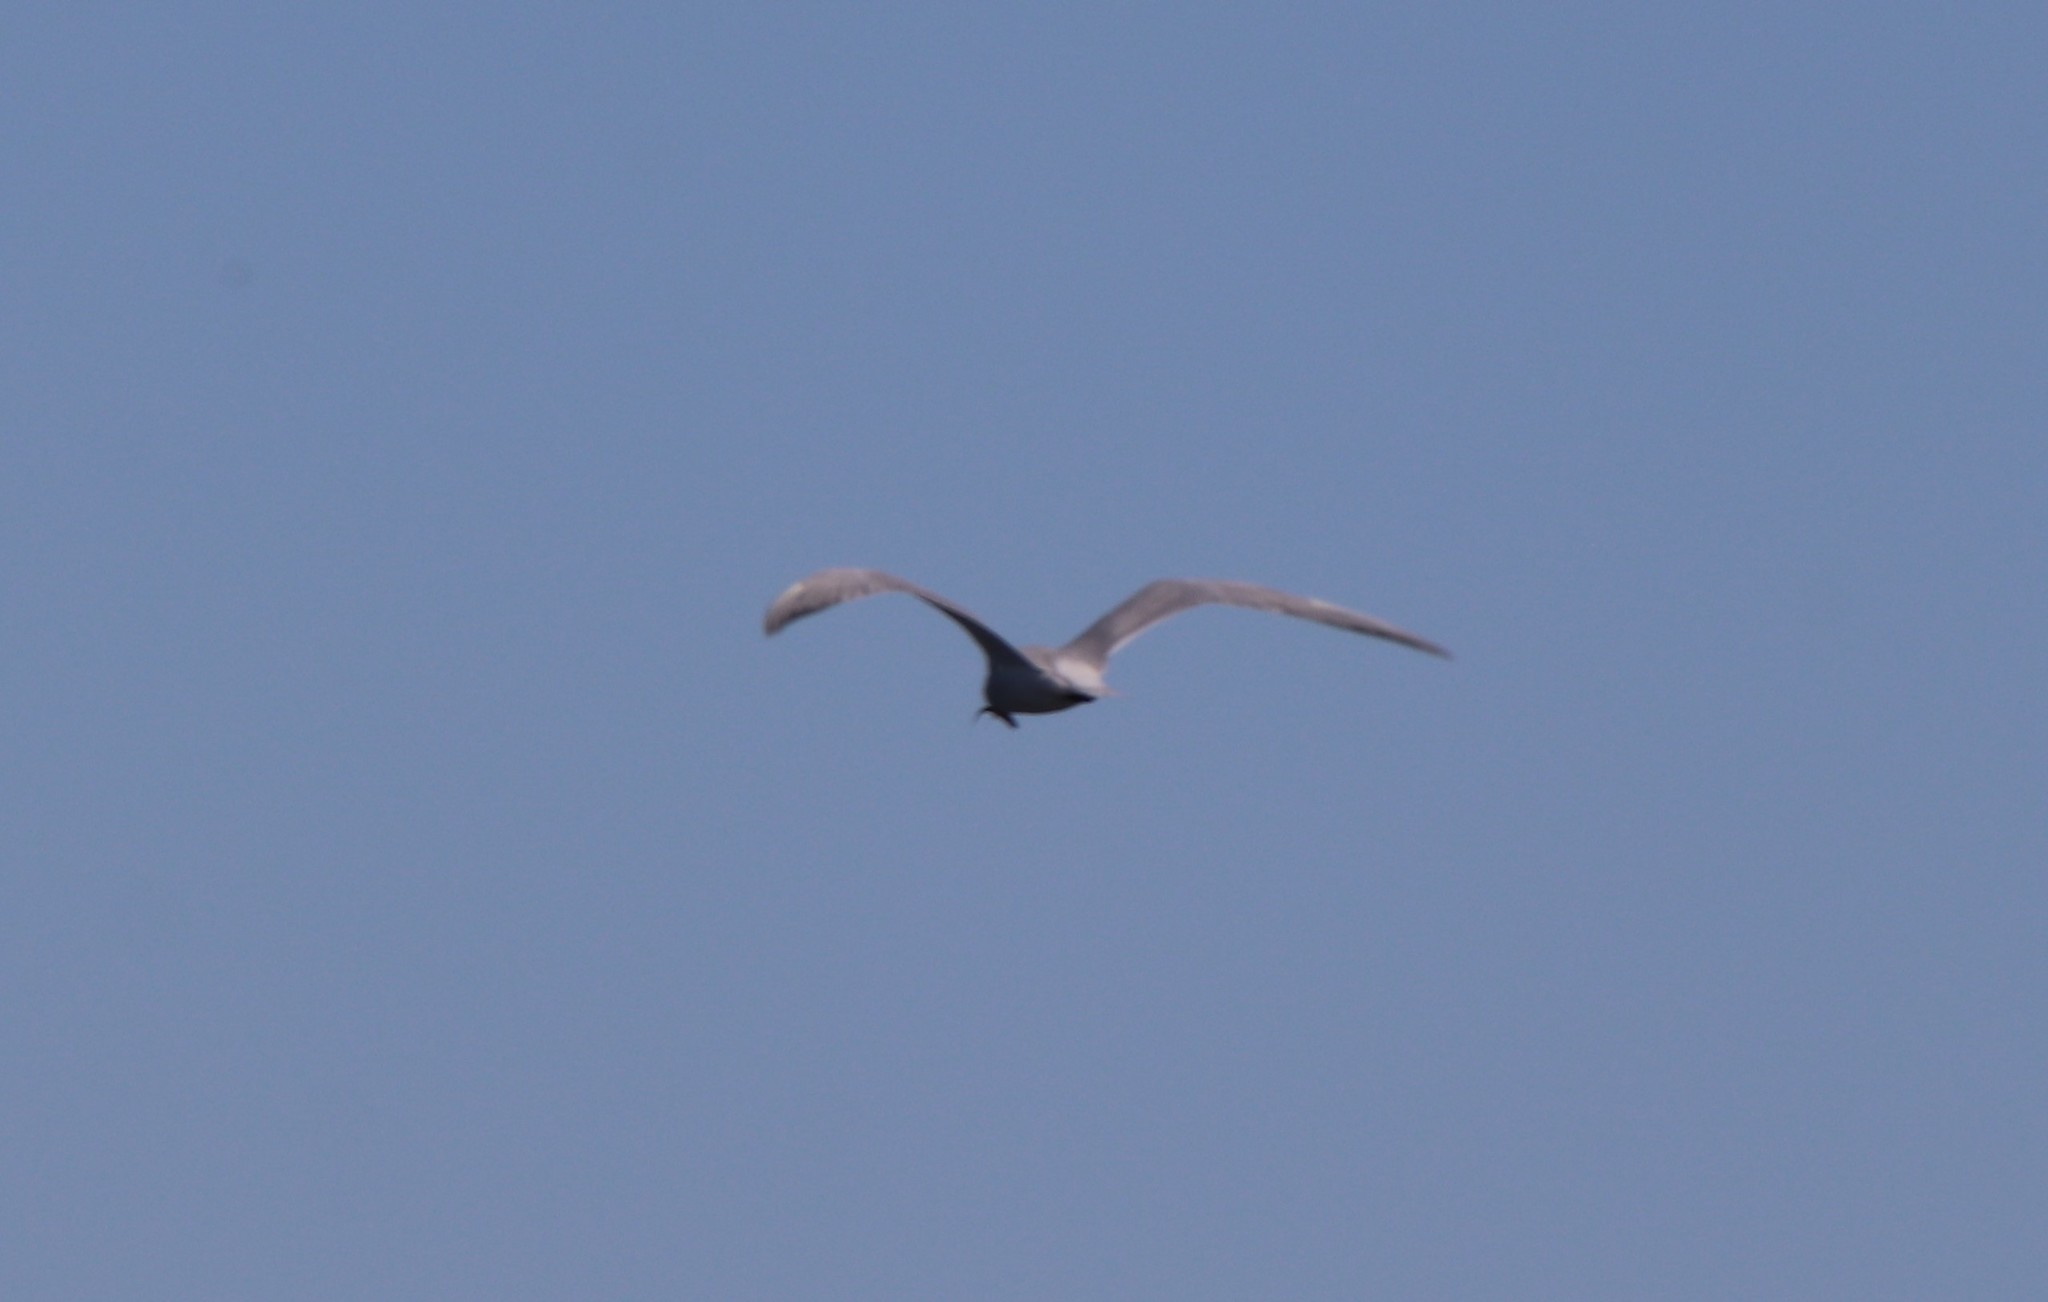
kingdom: Animalia
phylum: Chordata
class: Aves
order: Charadriiformes
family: Laridae
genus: Hydroprogne
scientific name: Hydroprogne caspia
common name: Caspian tern
